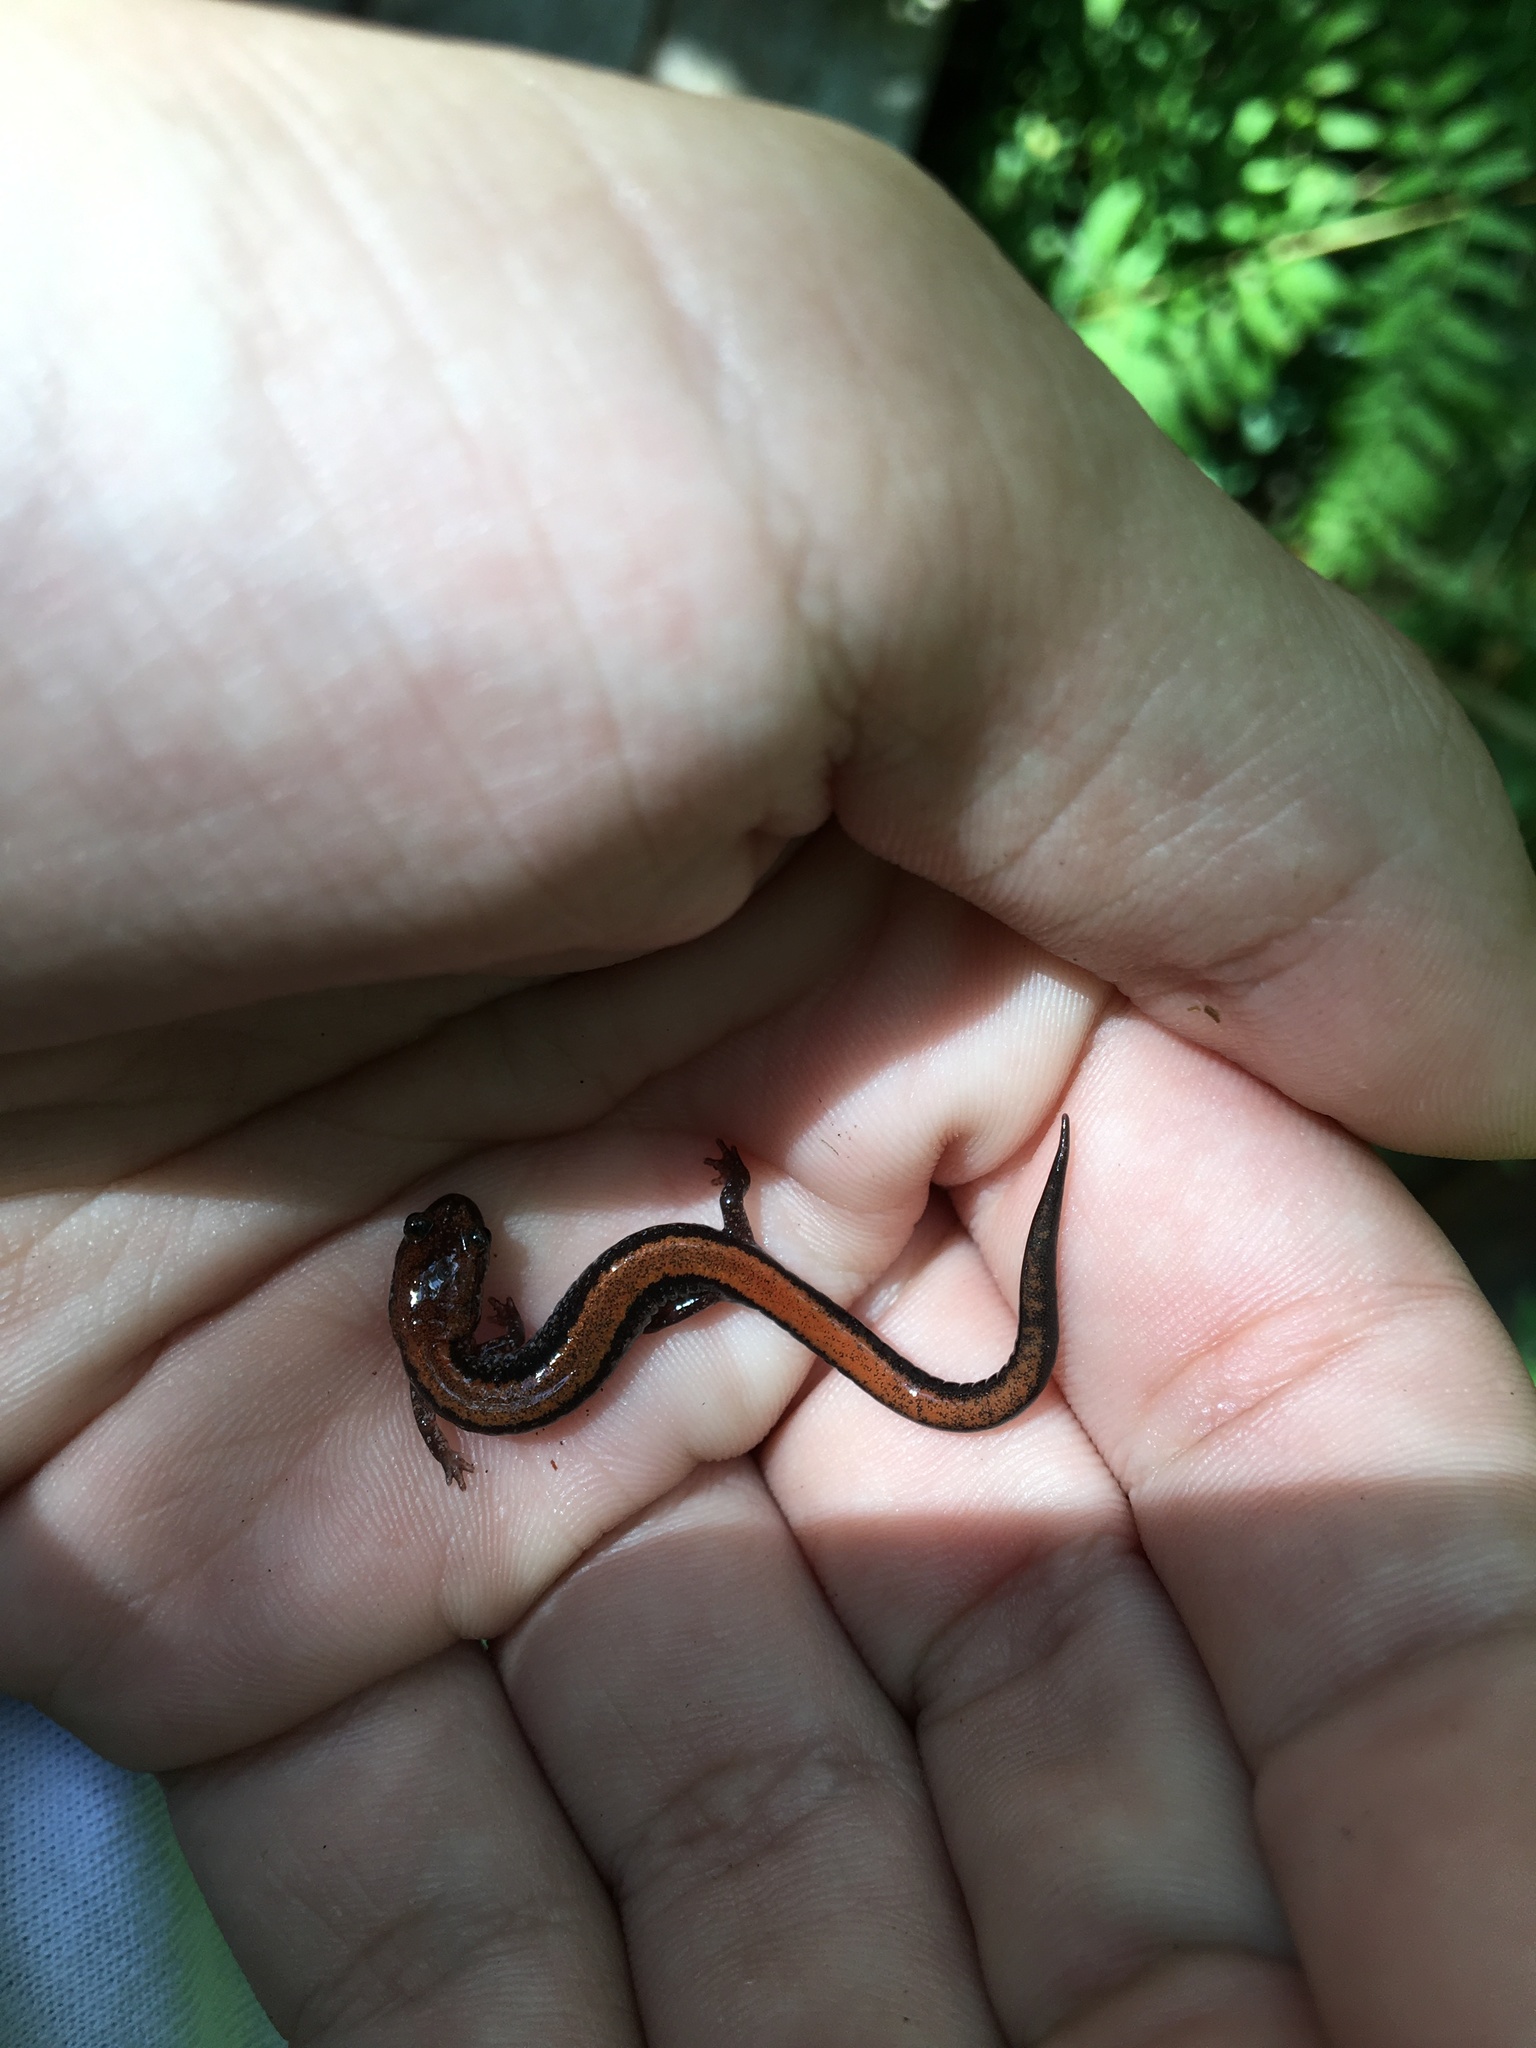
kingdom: Animalia
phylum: Chordata
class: Amphibia
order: Caudata
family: Plethodontidae
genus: Plethodon
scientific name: Plethodon cinereus
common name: Redback salamander
